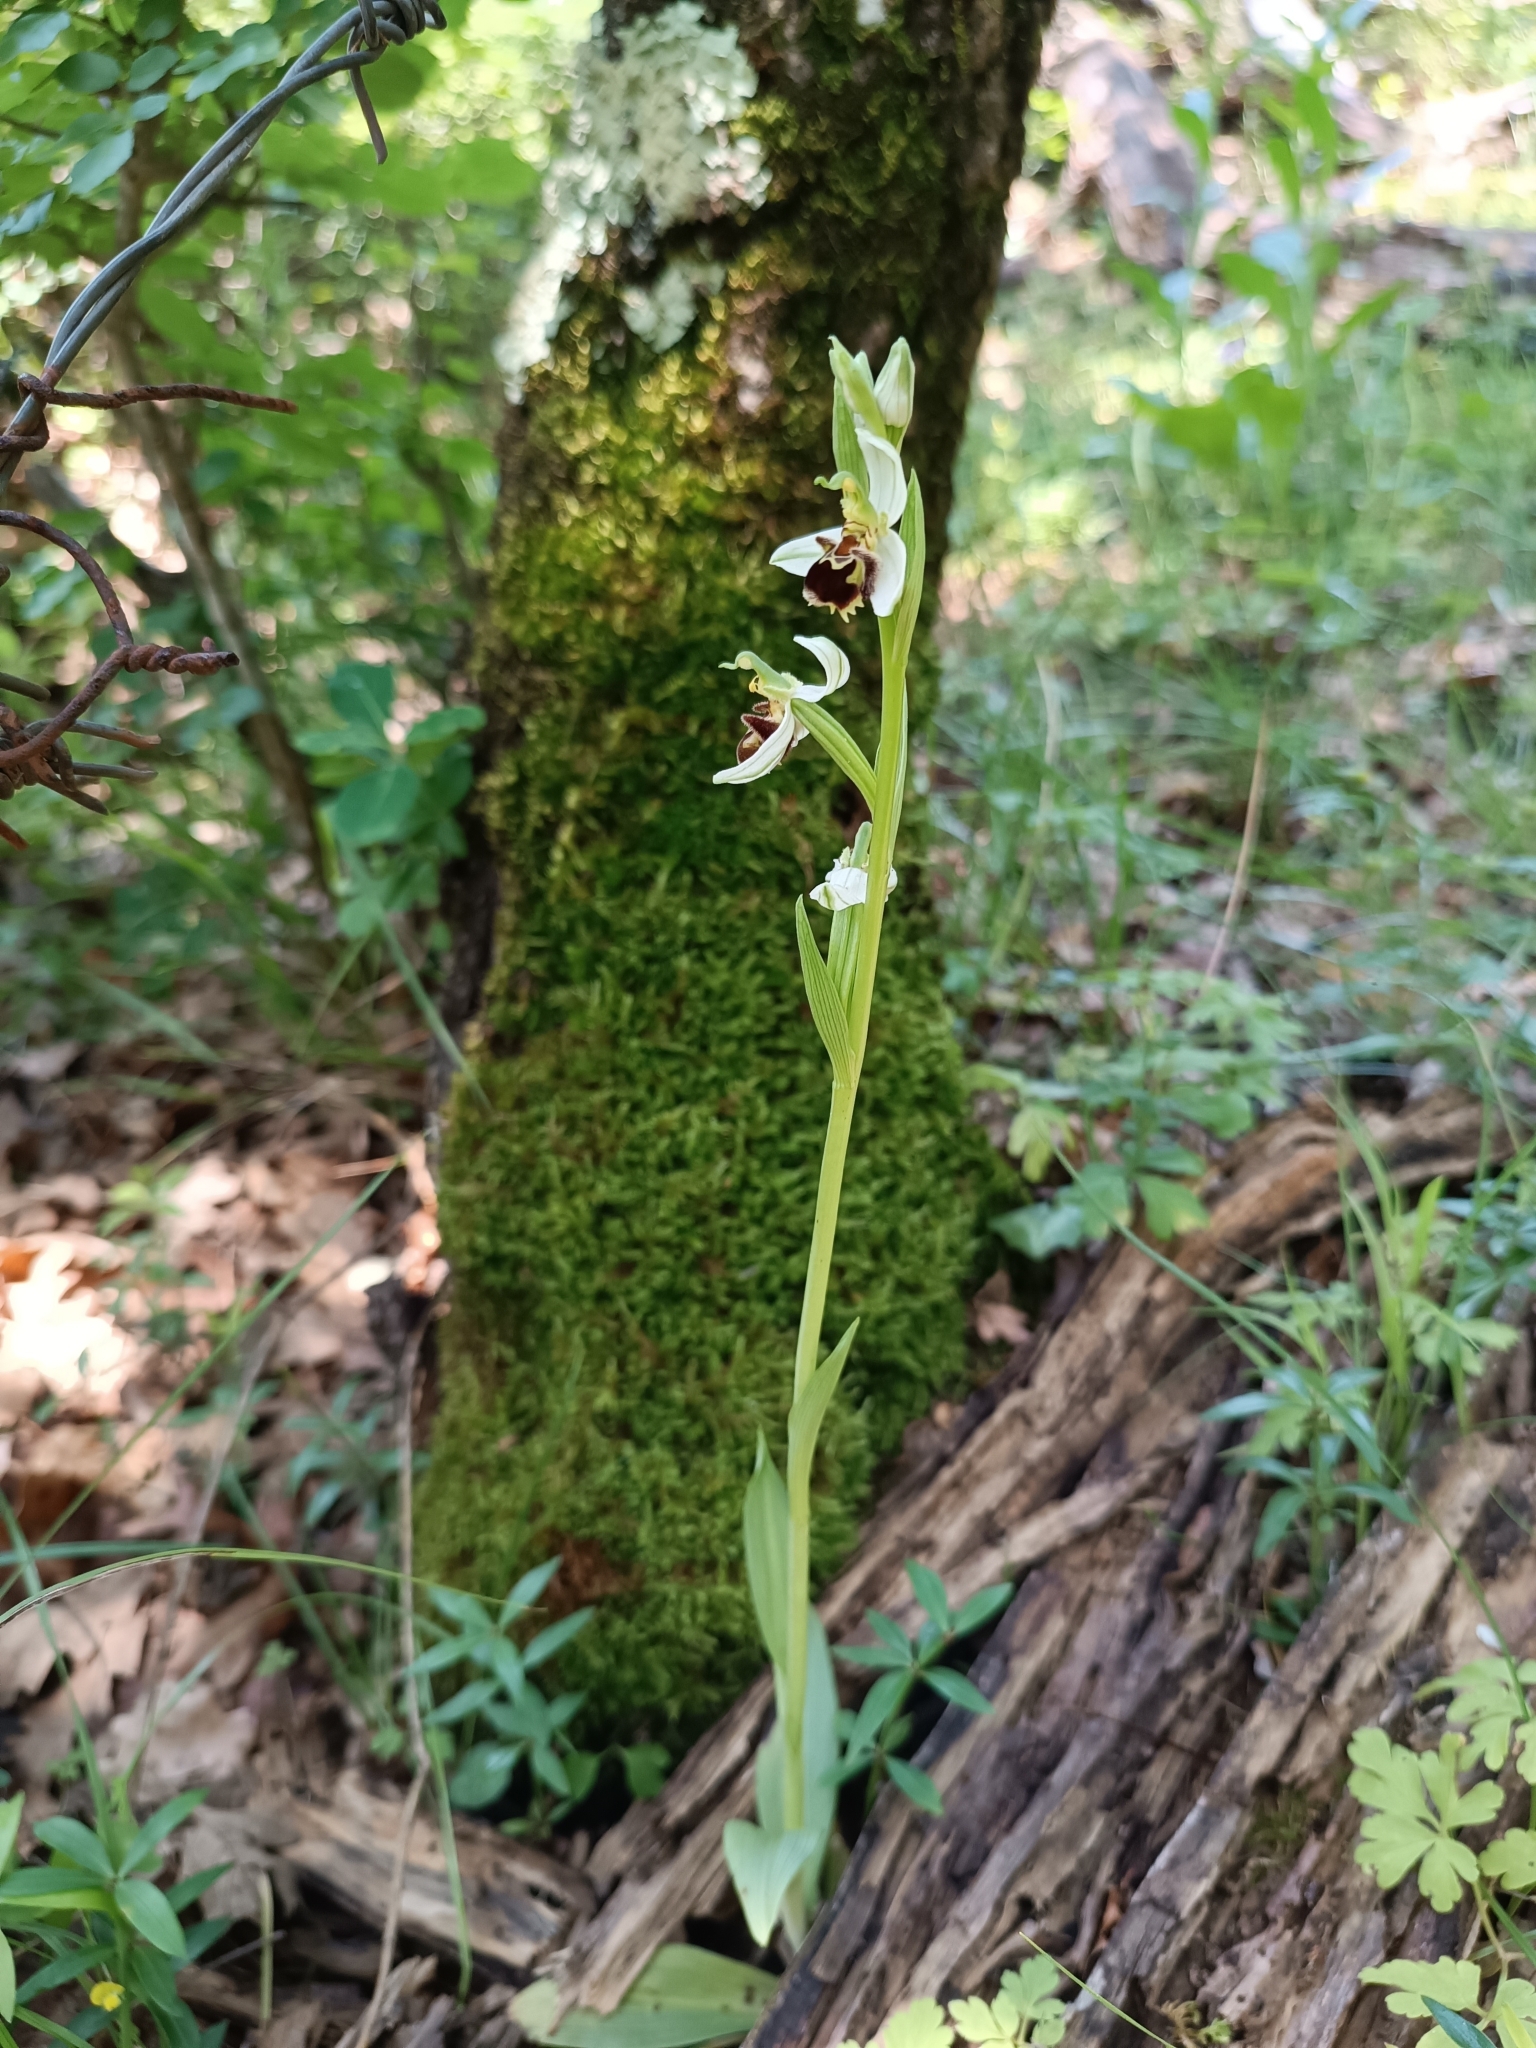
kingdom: Plantae
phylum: Tracheophyta
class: Liliopsida
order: Asparagales
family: Orchidaceae
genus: Ophrys
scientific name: Ophrys apifera
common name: Bee orchid
